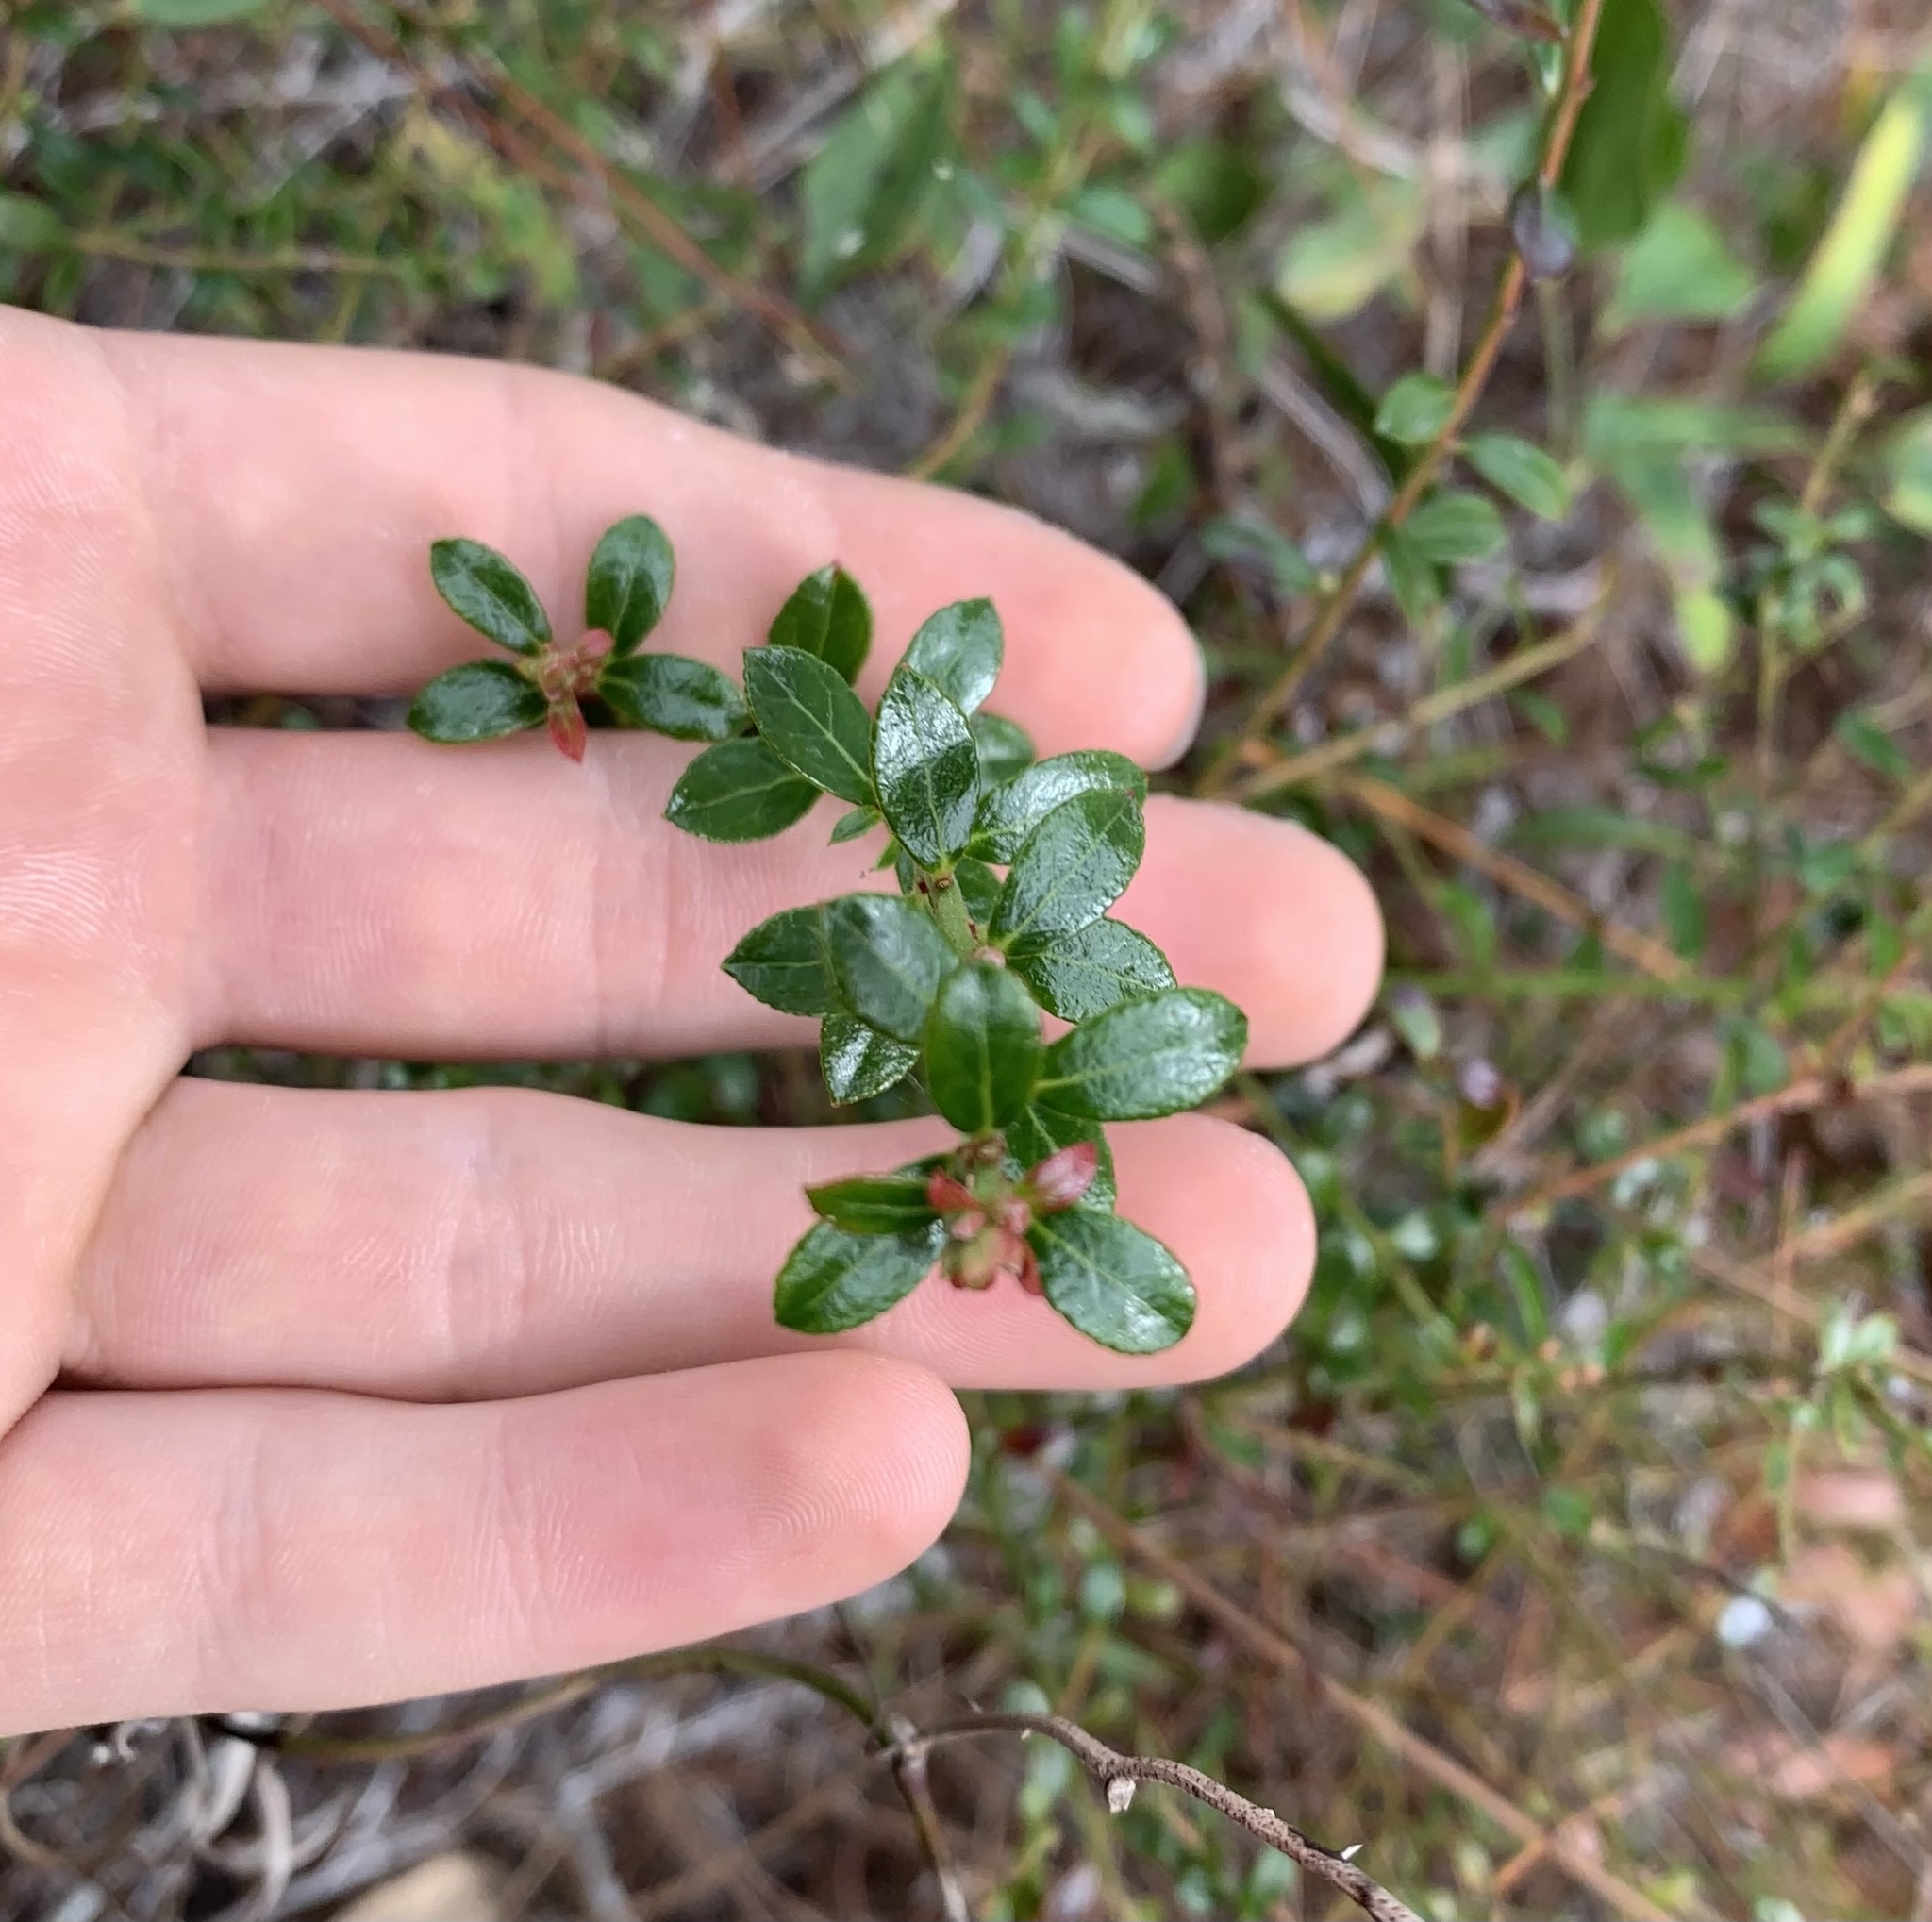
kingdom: Plantae
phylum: Tracheophyta
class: Magnoliopsida
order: Ericales
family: Ericaceae
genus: Vaccinium
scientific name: Vaccinium myrsinites
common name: Evergreen blueberry
